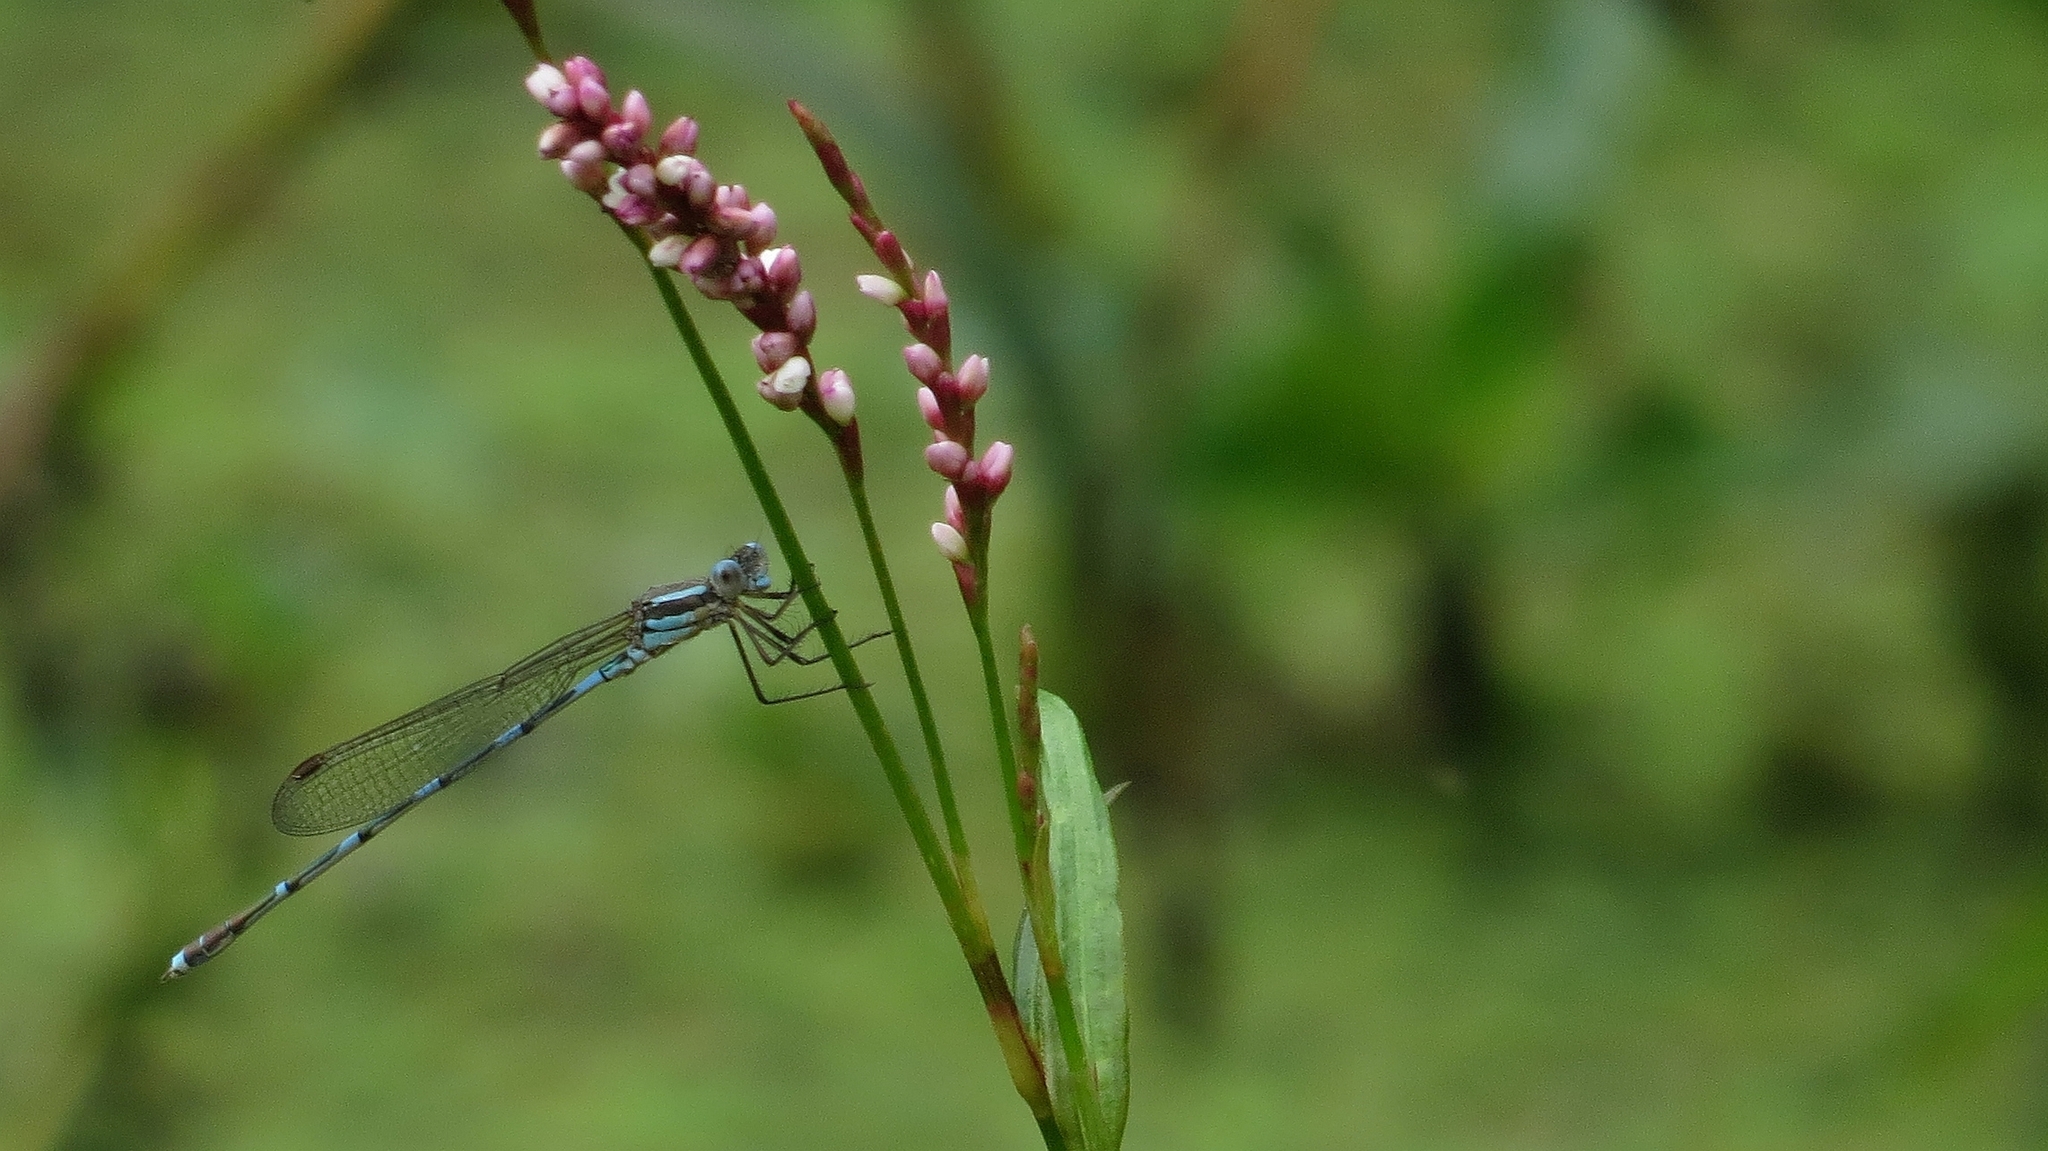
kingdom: Animalia
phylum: Arthropoda
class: Insecta
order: Odonata
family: Lestidae
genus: Austrolestes
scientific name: Austrolestes leda
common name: Wandering ringtail
